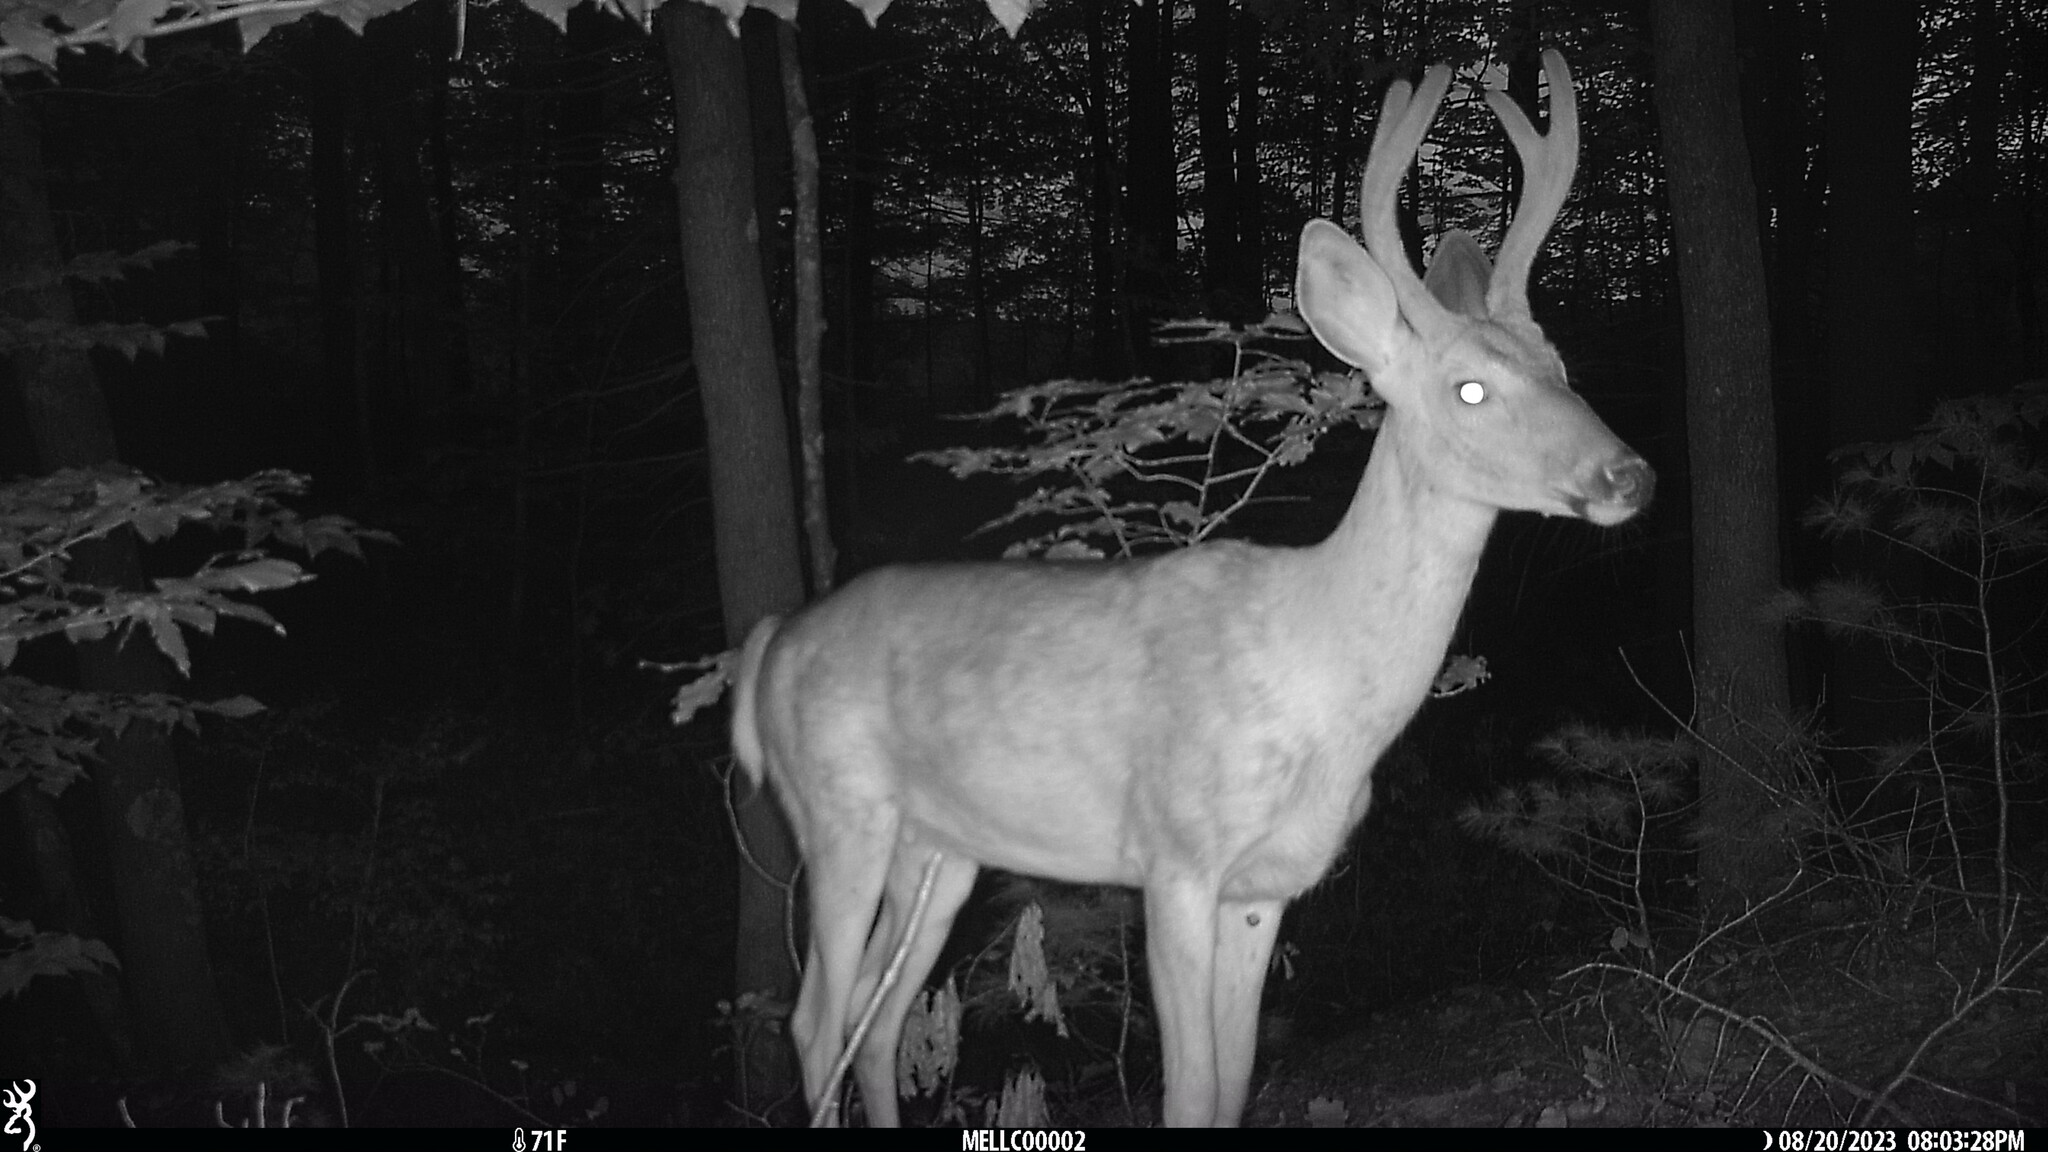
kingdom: Animalia
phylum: Chordata
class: Mammalia
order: Artiodactyla
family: Cervidae
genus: Odocoileus
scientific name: Odocoileus virginianus
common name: White-tailed deer
